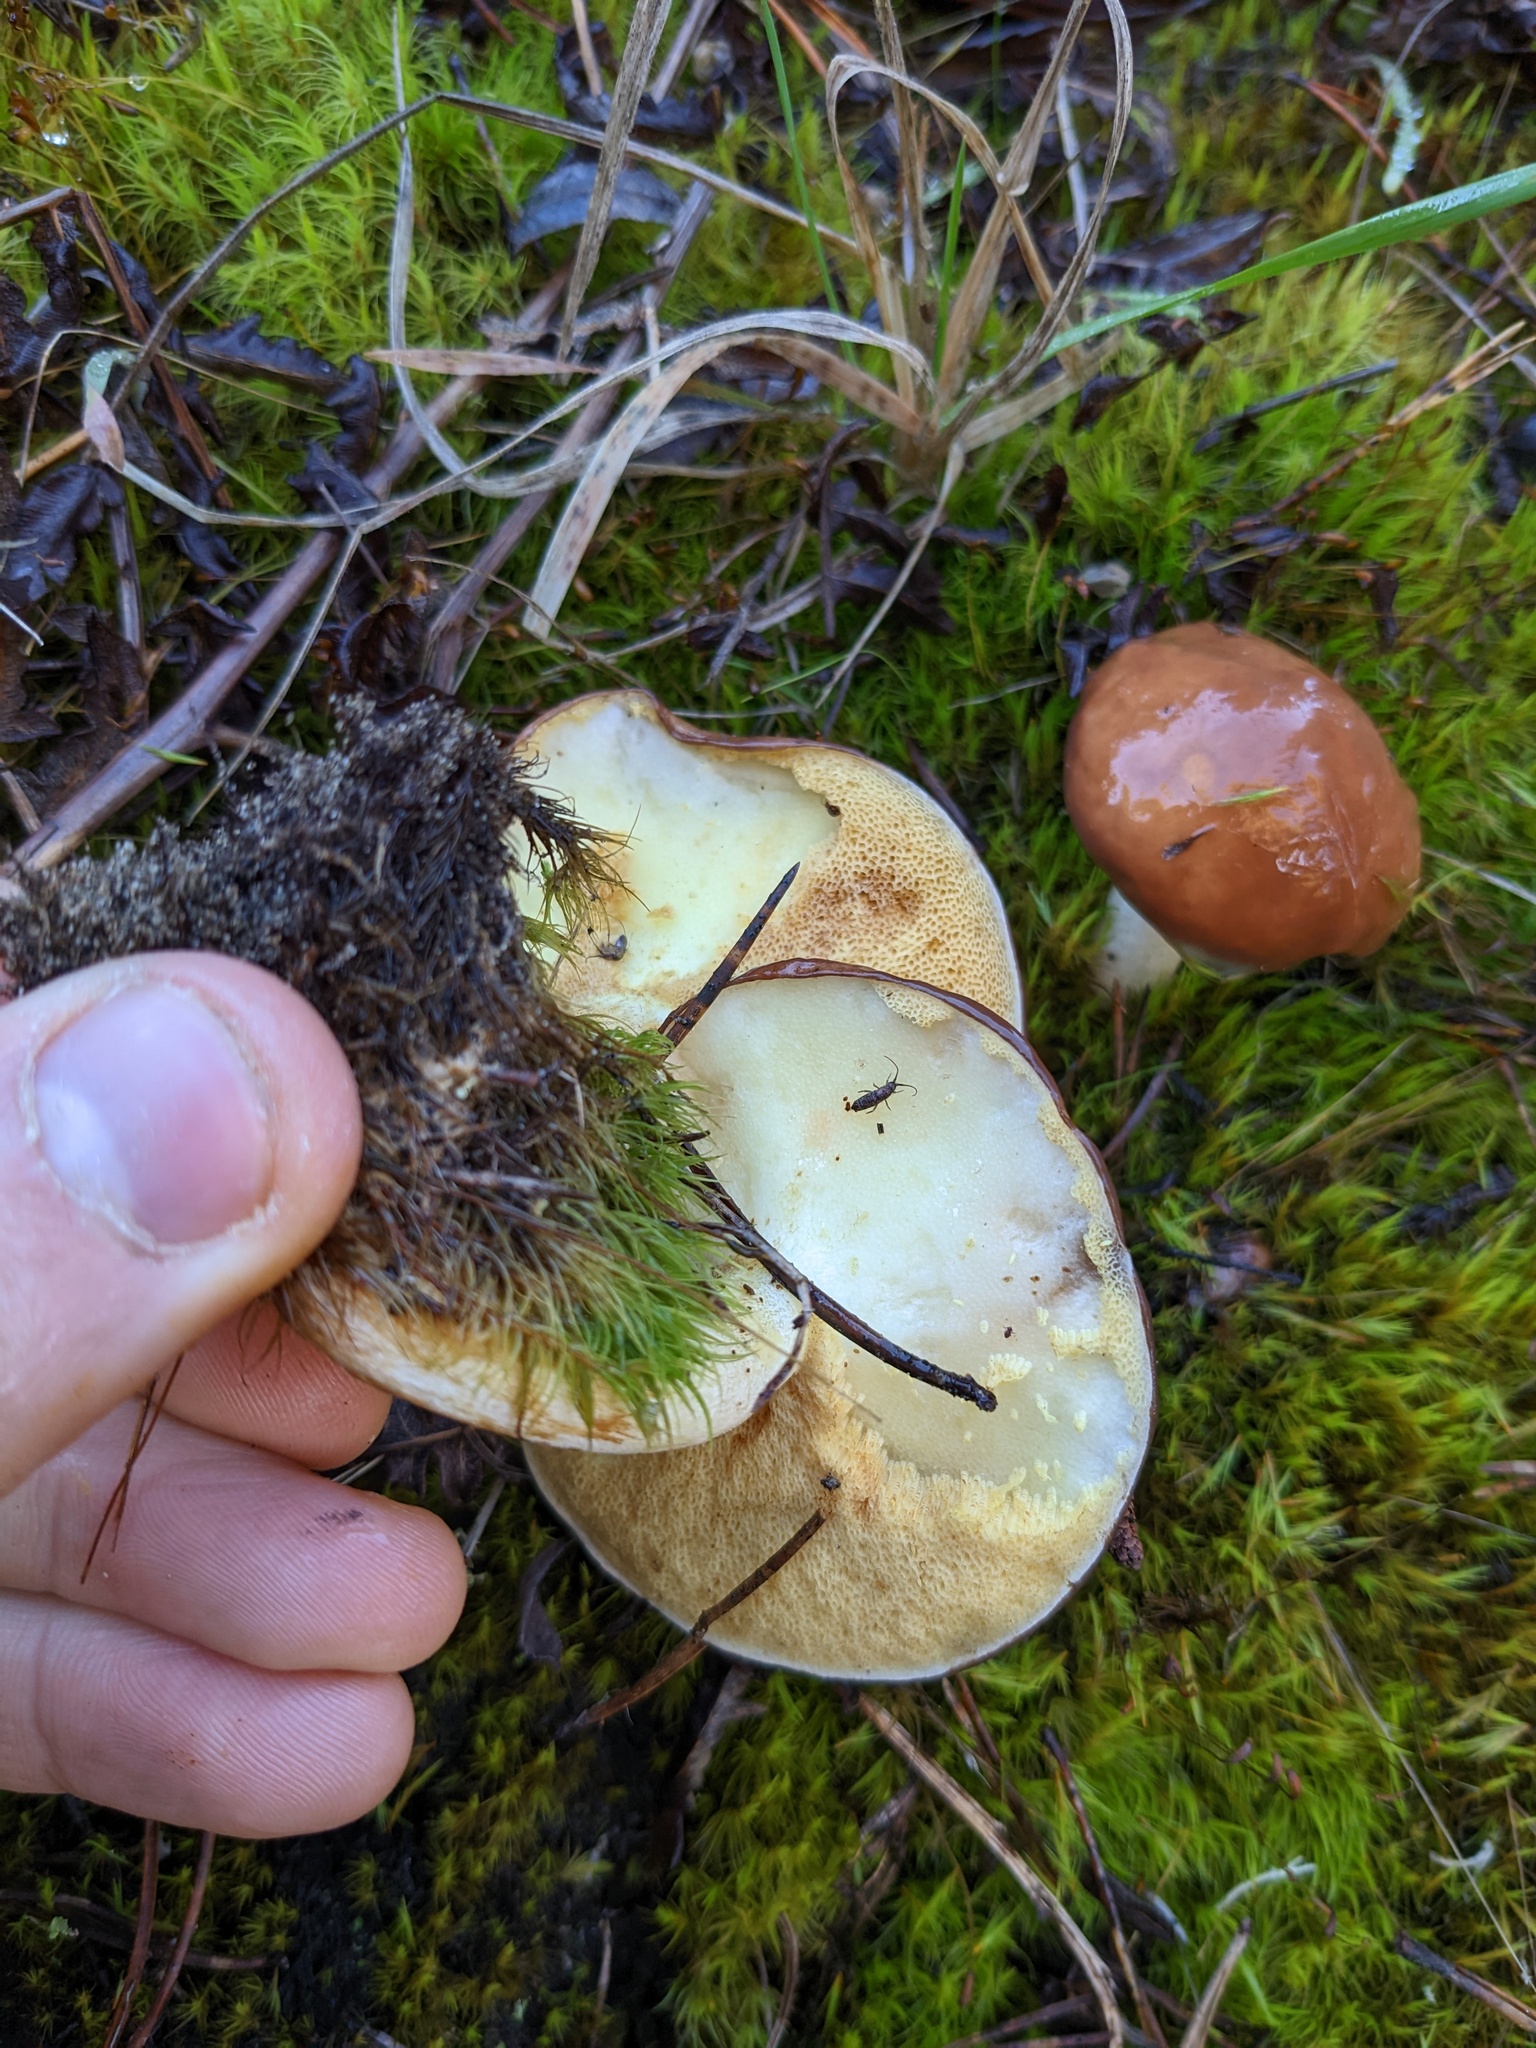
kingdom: Fungi
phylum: Basidiomycota
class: Agaricomycetes
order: Boletales
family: Suillaceae
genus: Suillus
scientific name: Suillus brevipes
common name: Short-stalked suillus
